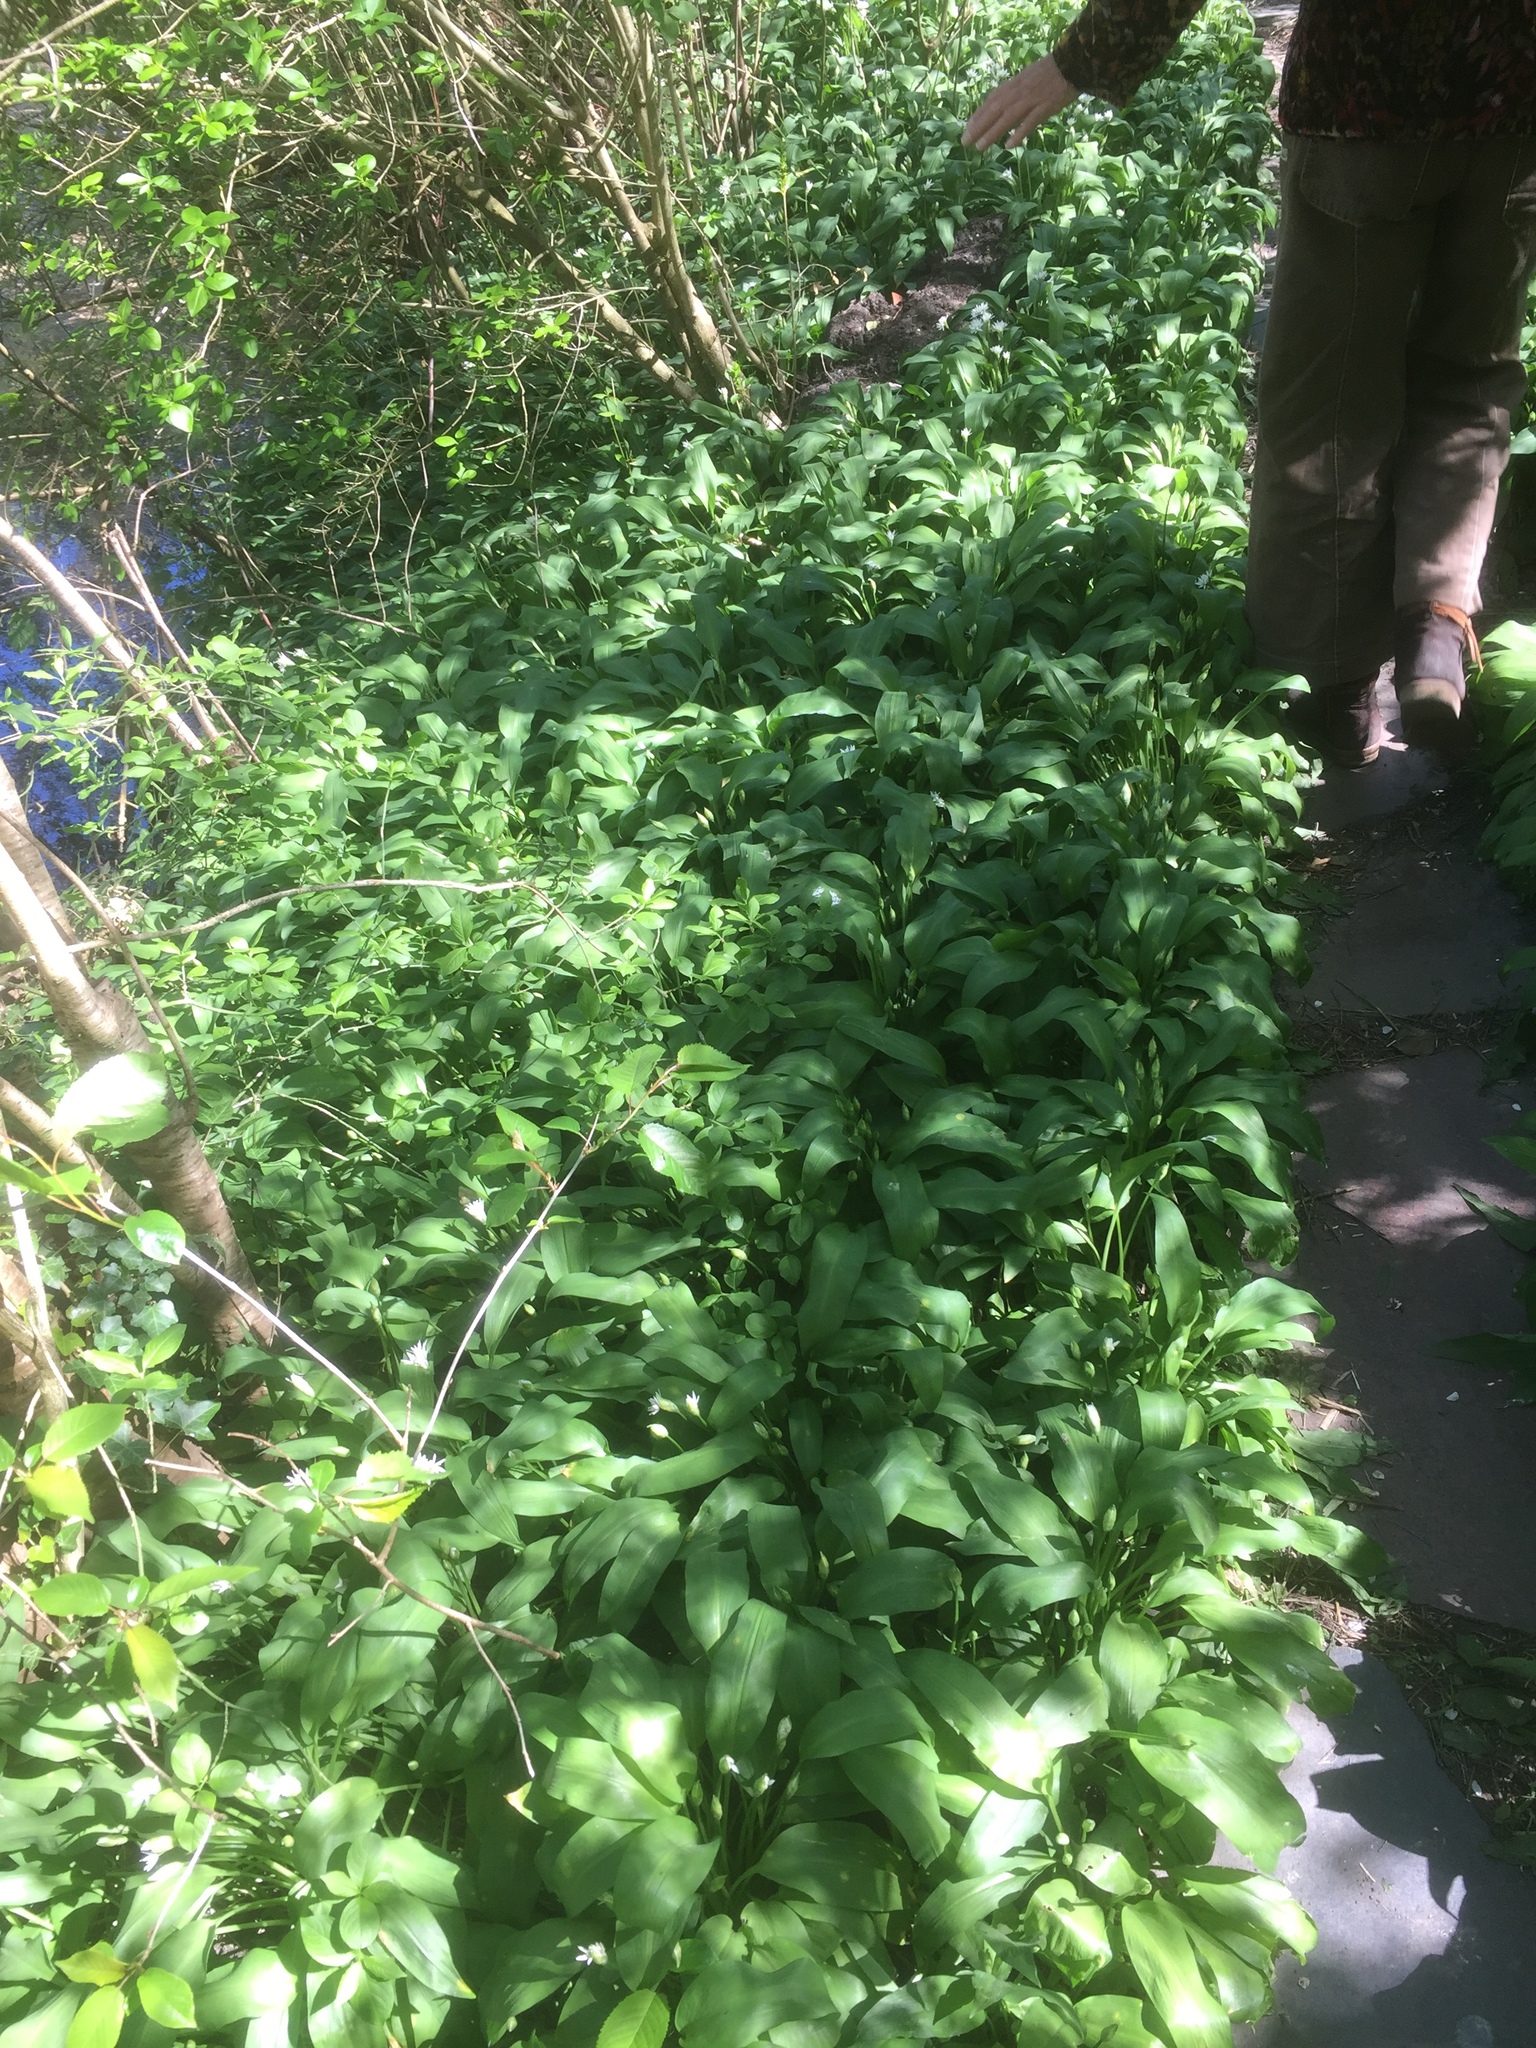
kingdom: Plantae
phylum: Tracheophyta
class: Liliopsida
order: Asparagales
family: Amaryllidaceae
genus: Allium
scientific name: Allium ursinum
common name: Ramsons
